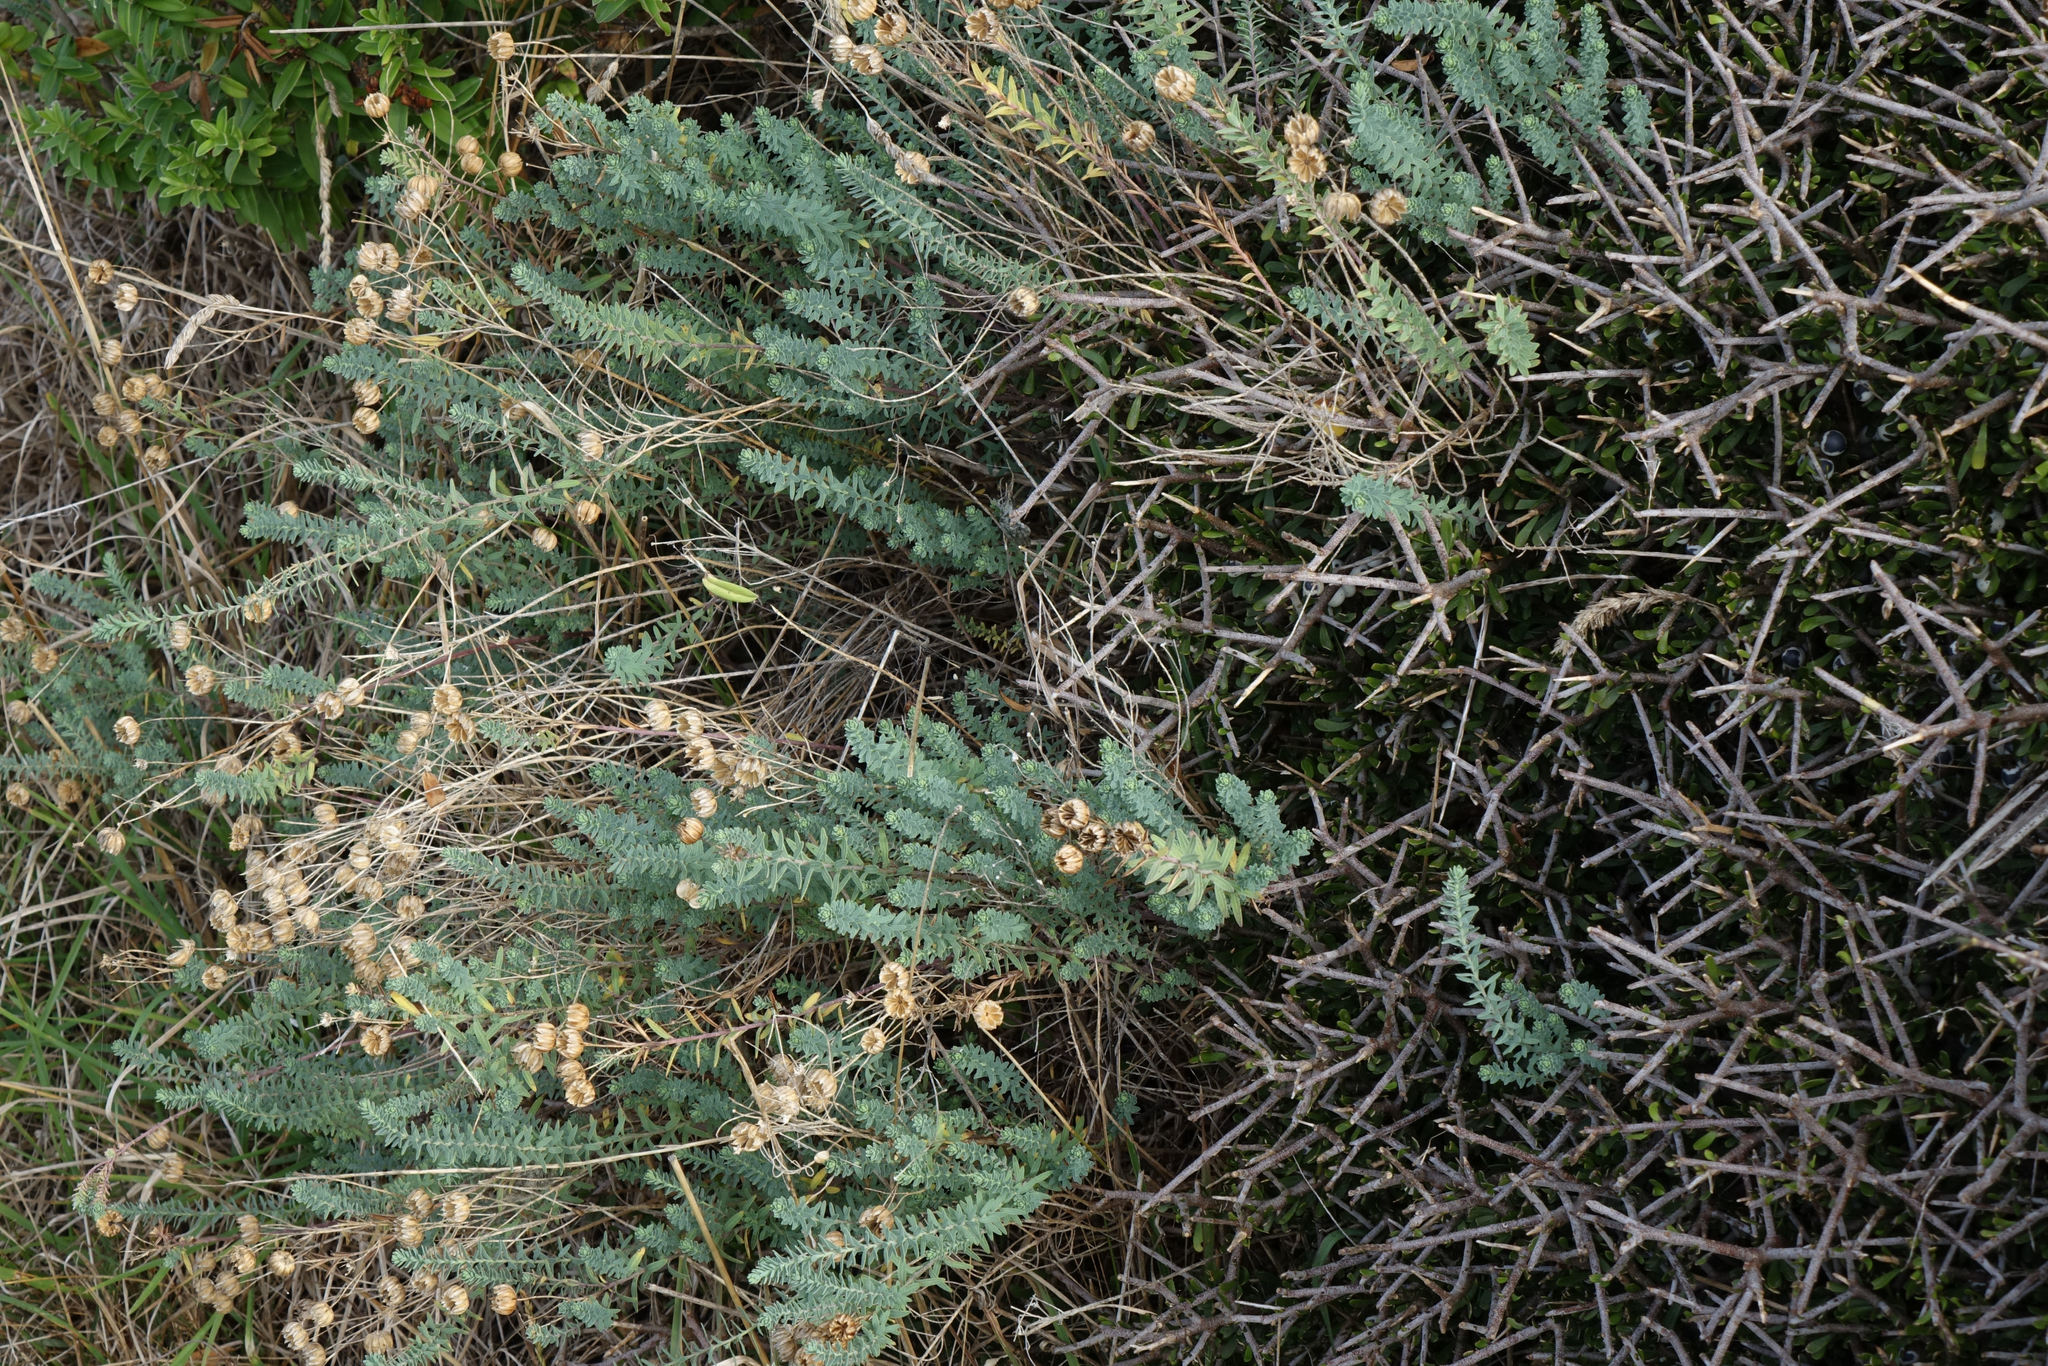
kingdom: Plantae
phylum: Tracheophyta
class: Magnoliopsida
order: Malpighiales
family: Linaceae
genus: Linum
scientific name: Linum monogynum
